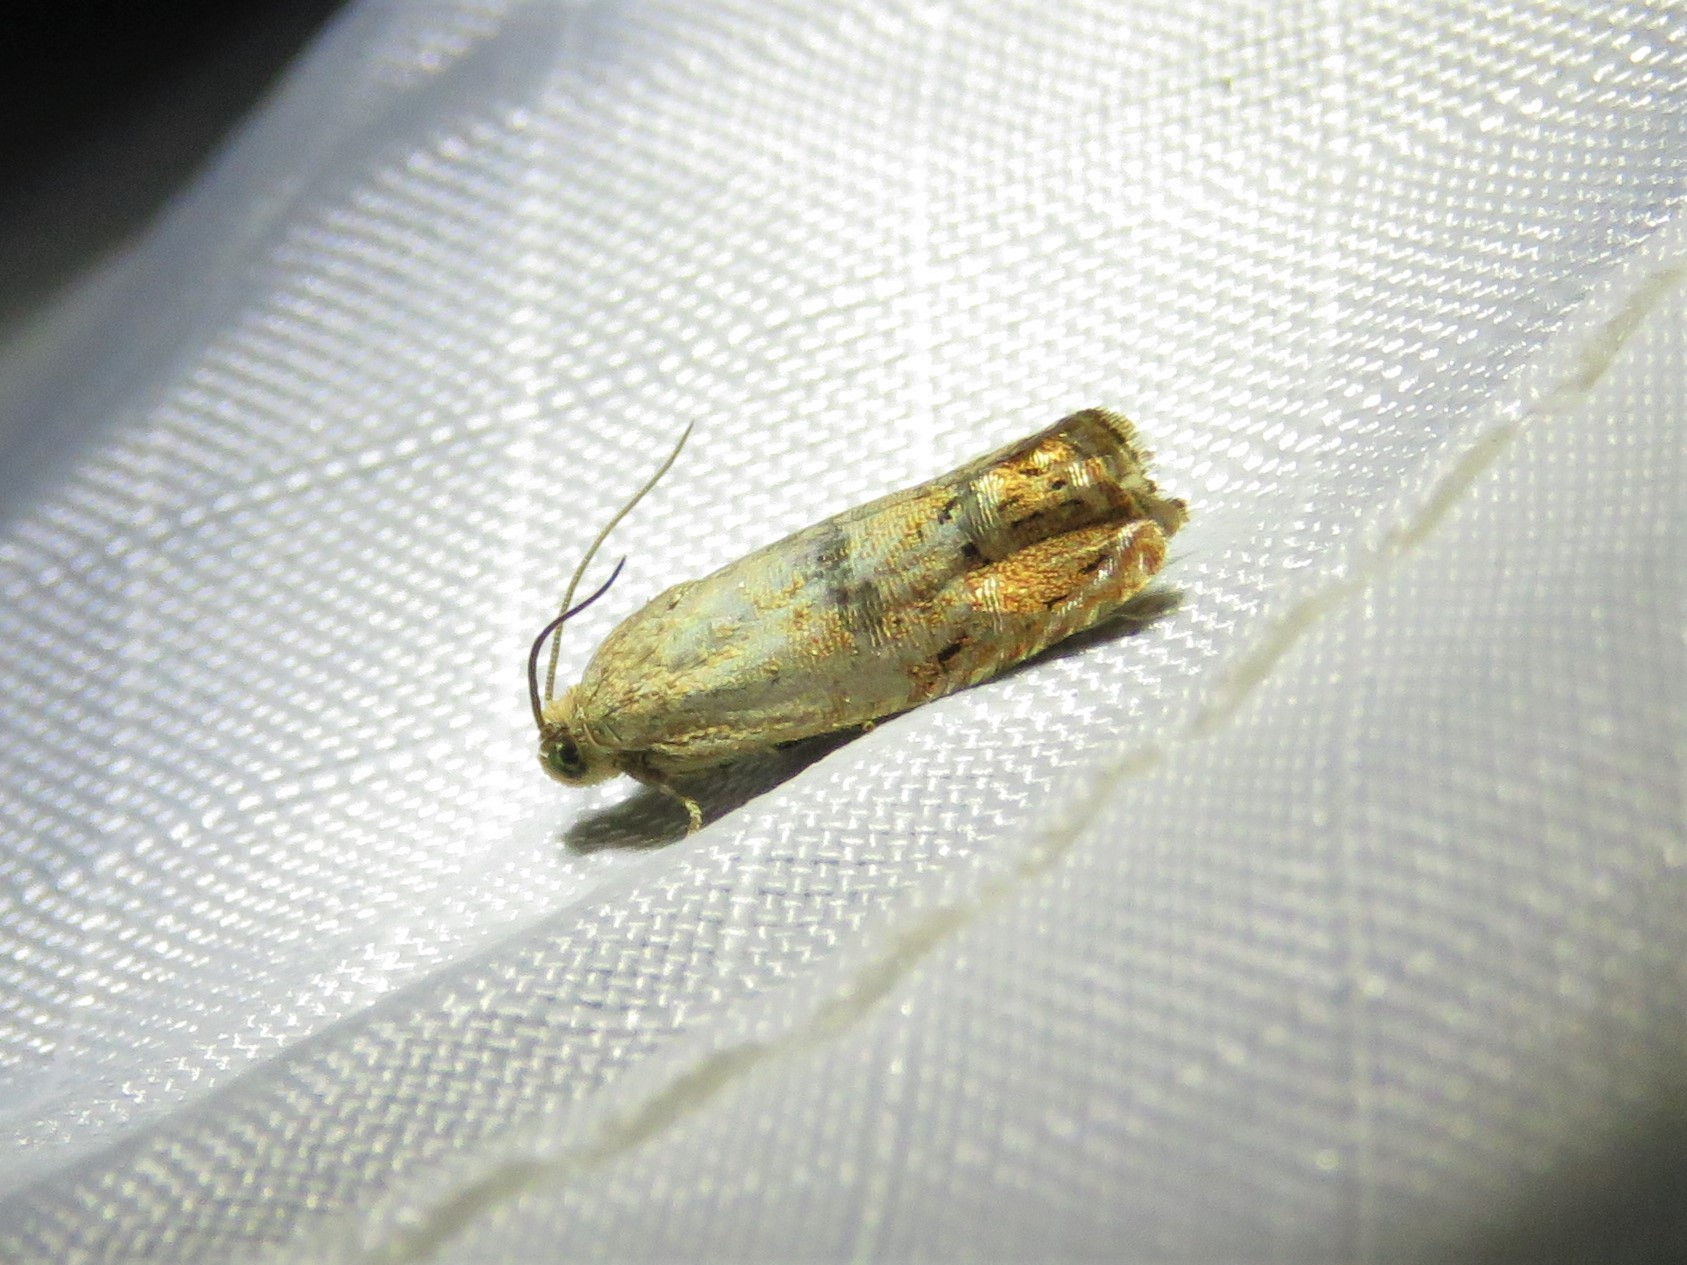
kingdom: Animalia
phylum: Arthropoda
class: Insecta
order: Lepidoptera
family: Tortricidae
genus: Cydia
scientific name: Cydia latiferreana
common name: Filbertworm moth
